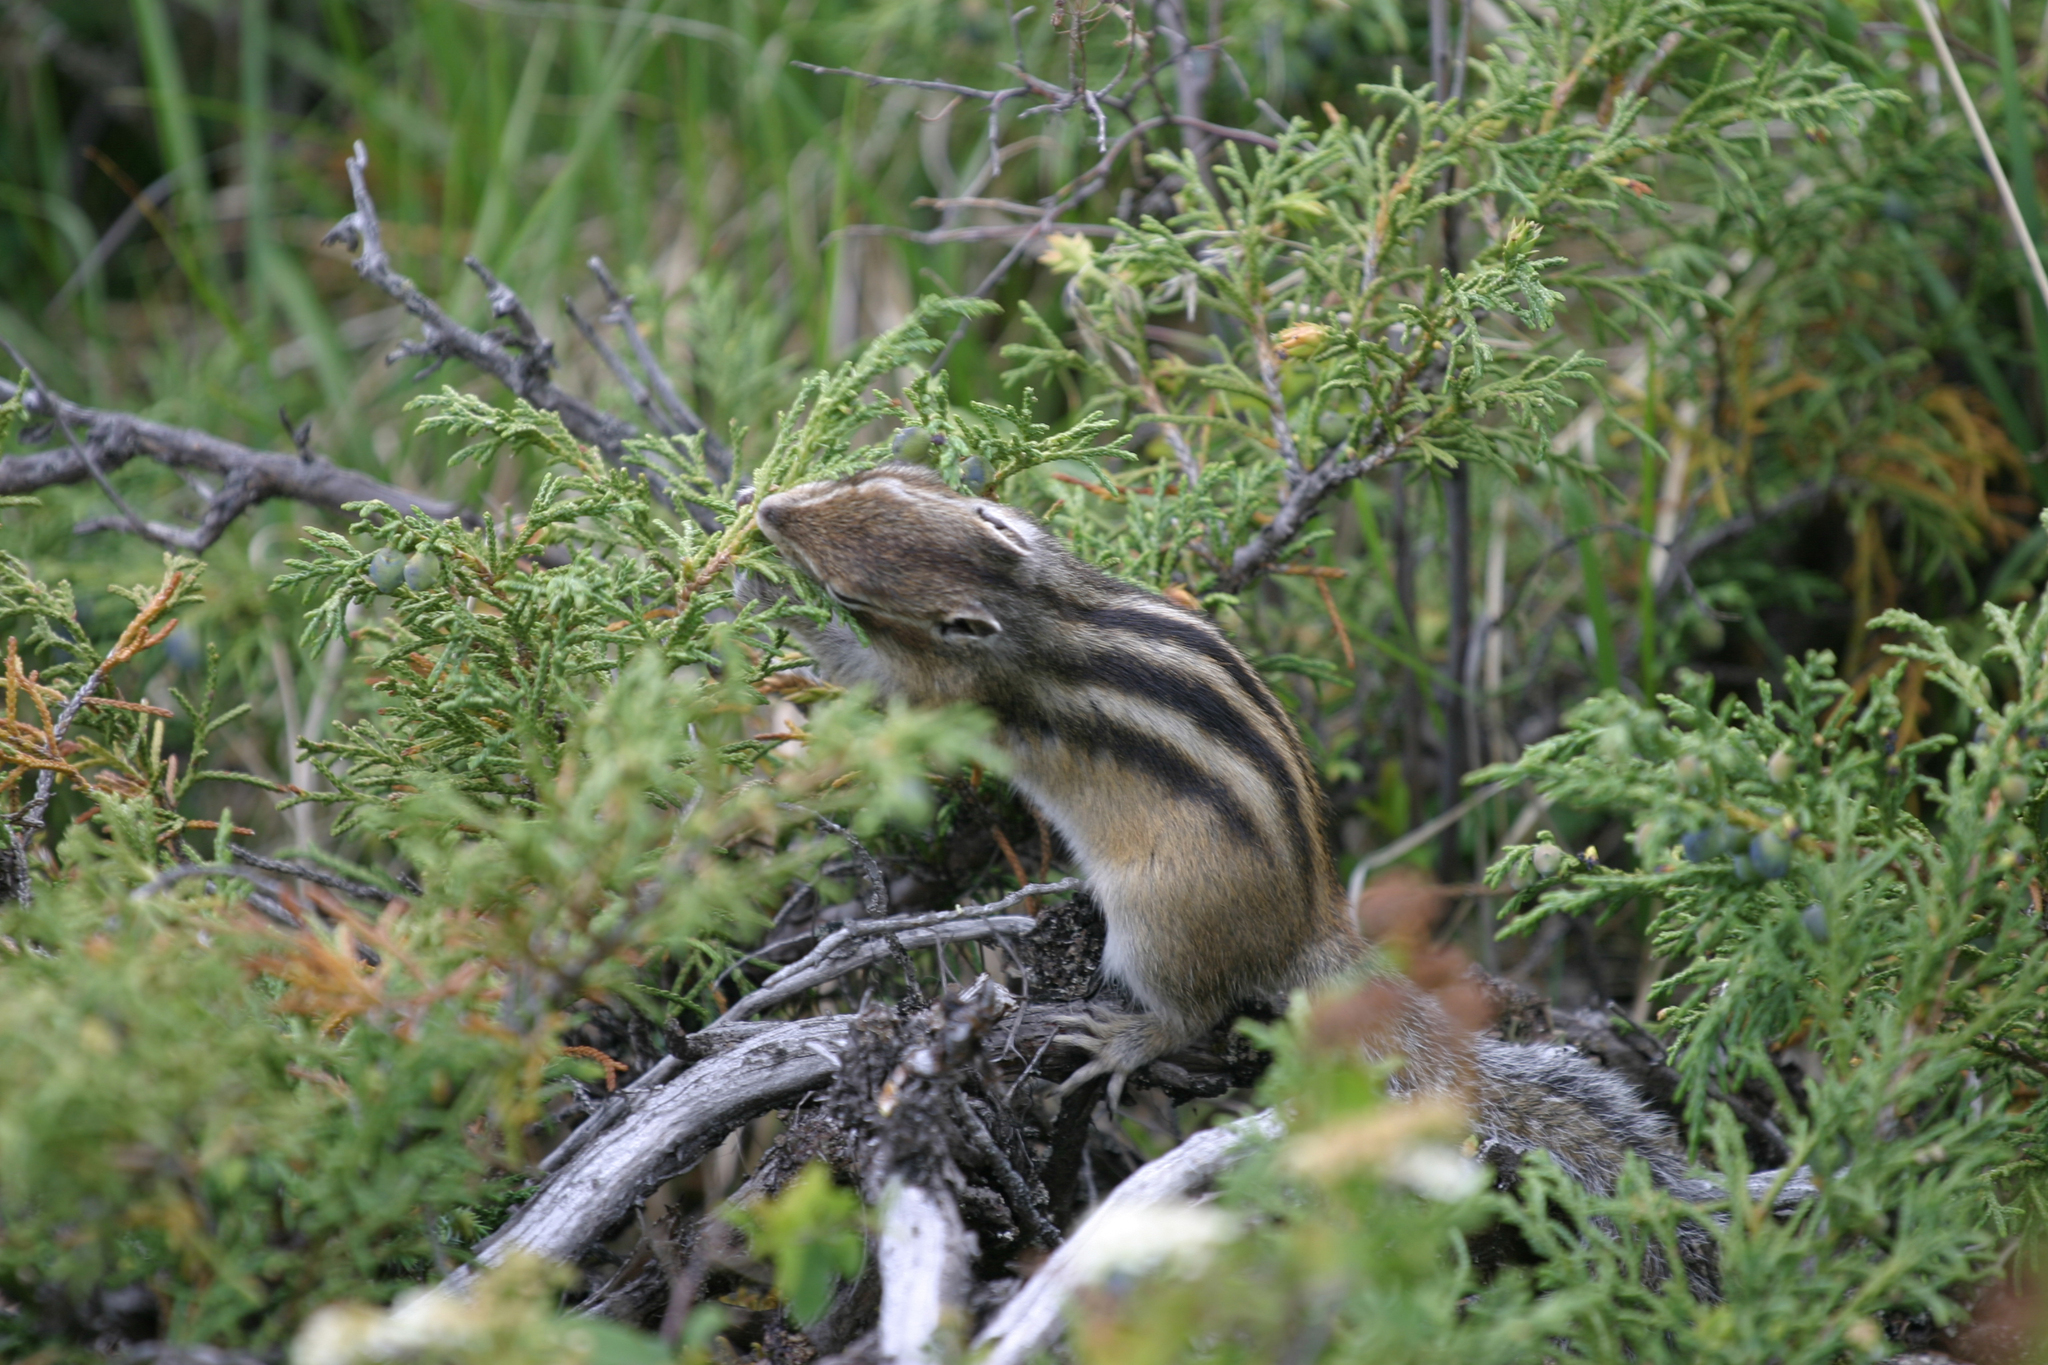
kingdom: Plantae
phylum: Tracheophyta
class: Pinopsida
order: Pinales
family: Cupressaceae
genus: Juniperus
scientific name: Juniperus pseudosabina
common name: Turkestan juniper
